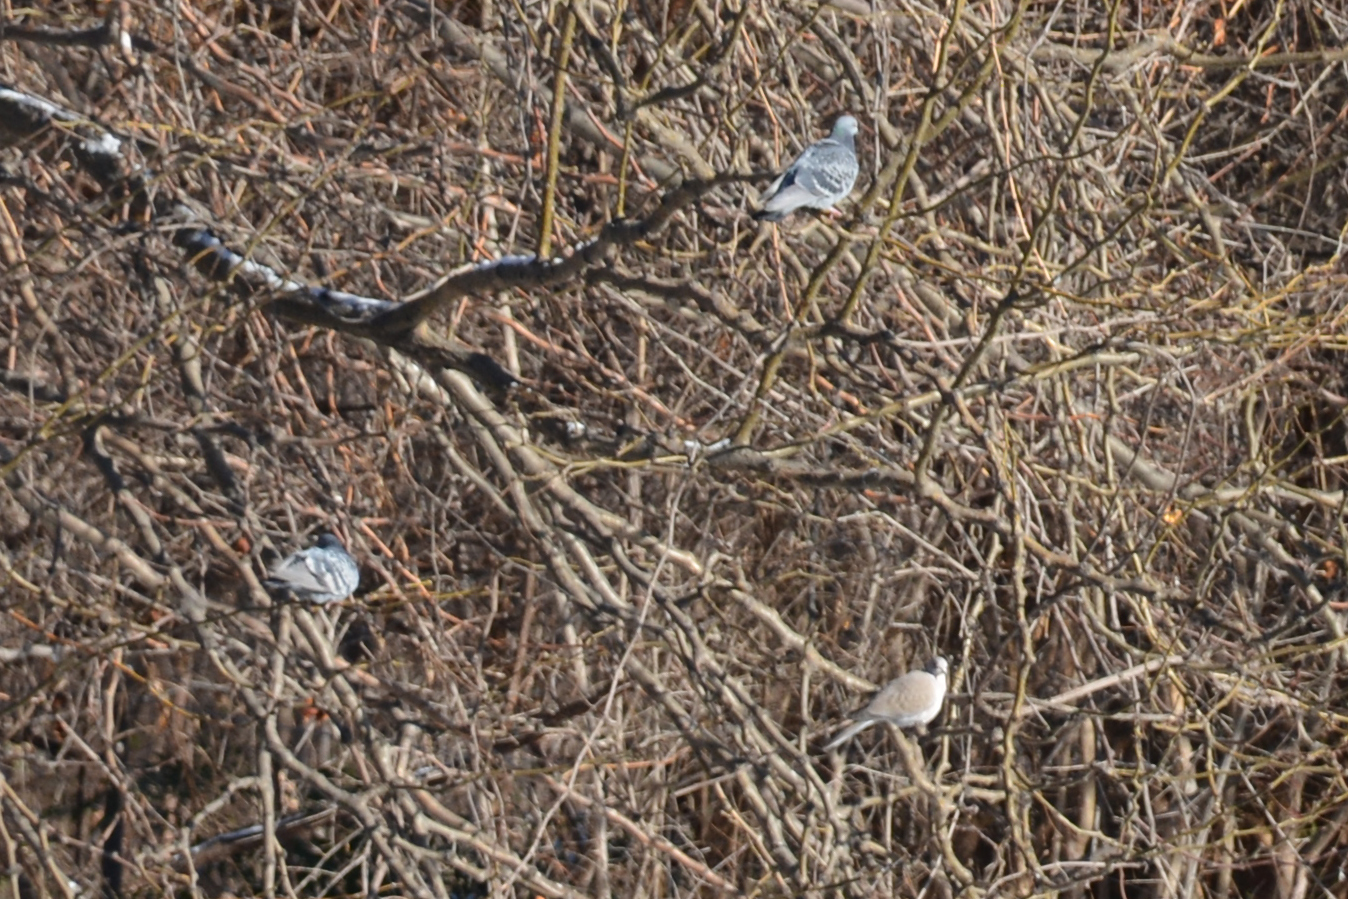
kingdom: Animalia
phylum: Chordata
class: Aves
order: Columbiformes
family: Columbidae
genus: Columba
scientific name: Columba livia
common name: Rock pigeon
